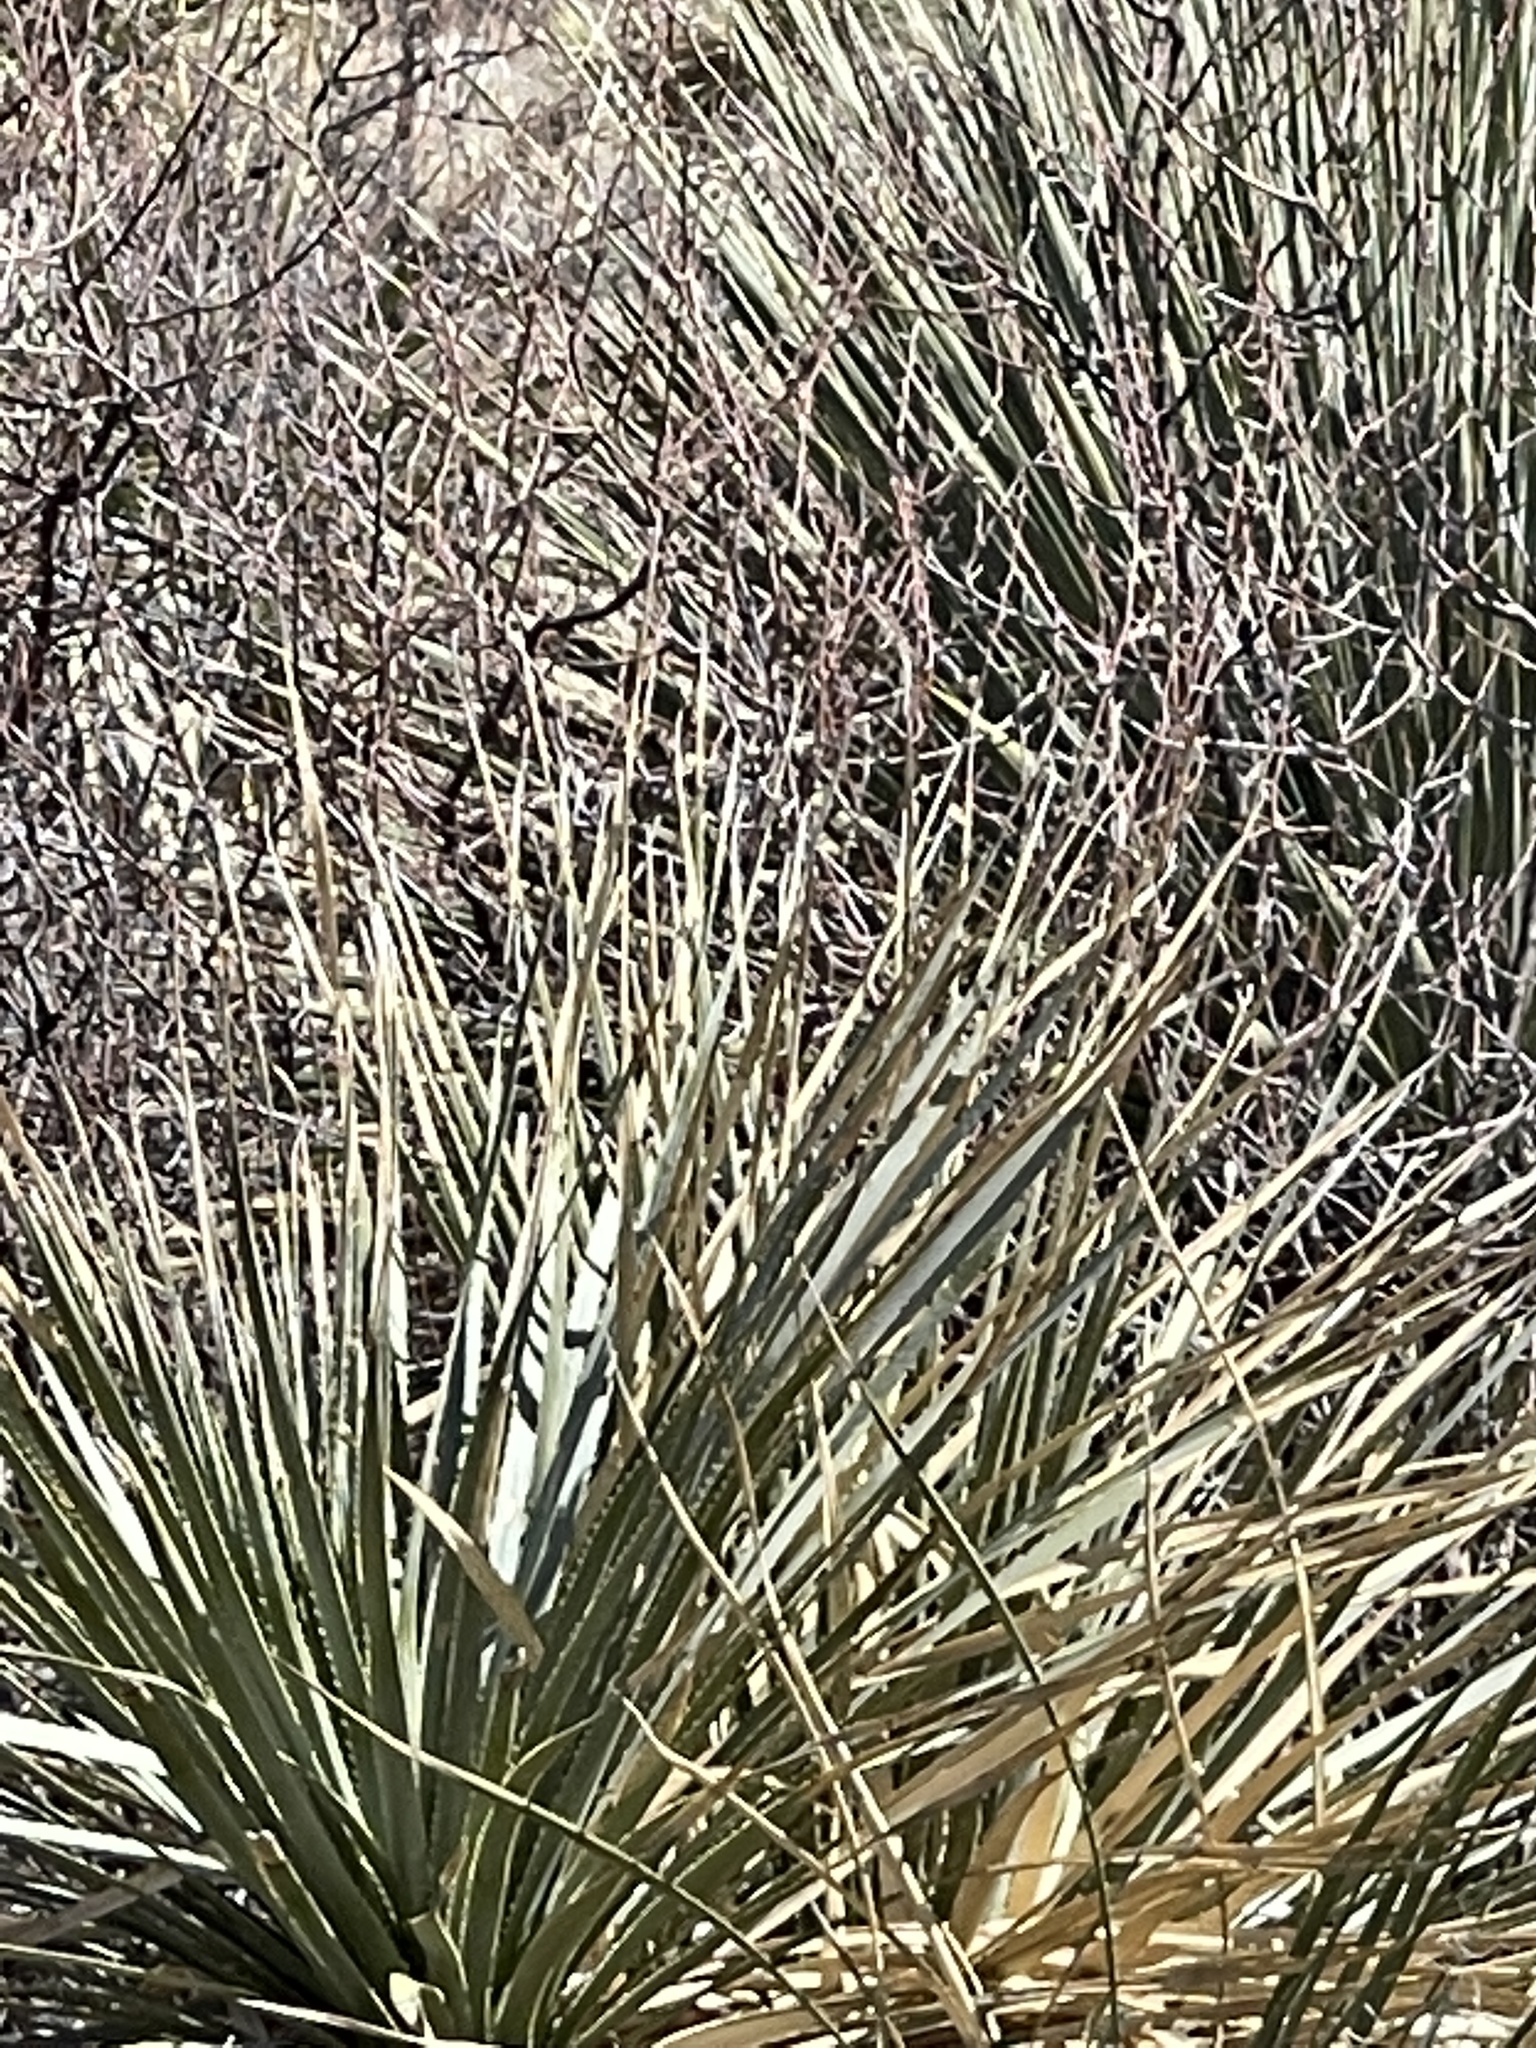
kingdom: Plantae
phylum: Tracheophyta
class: Liliopsida
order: Asparagales
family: Asparagaceae
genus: Dasylirion
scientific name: Dasylirion wheeleri
